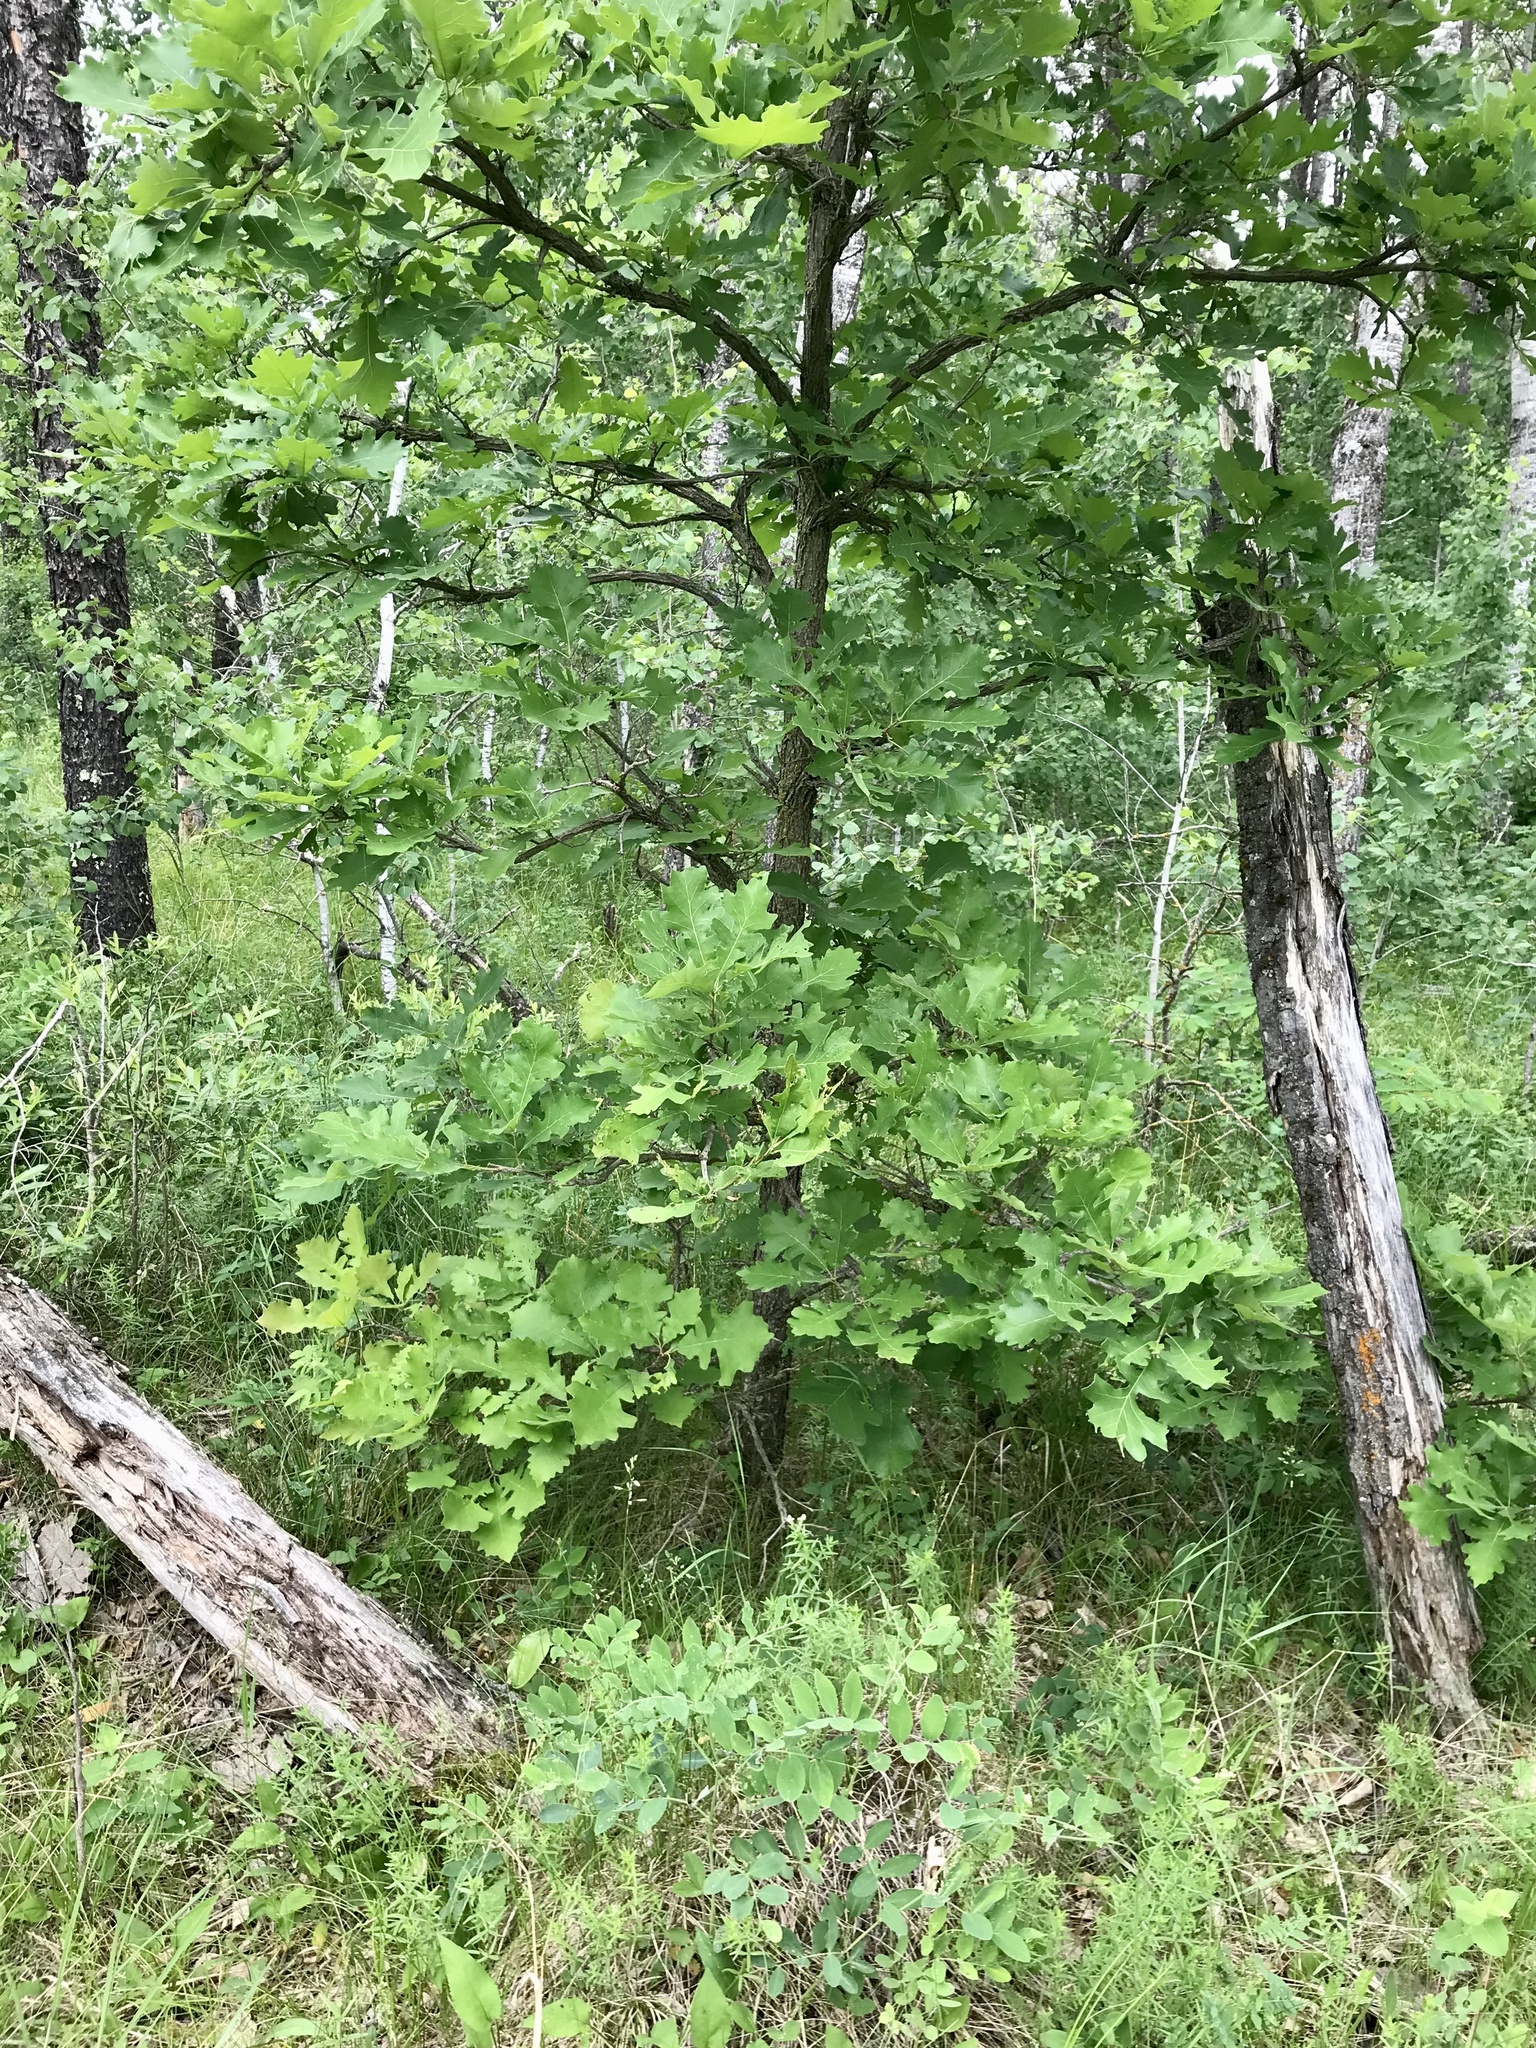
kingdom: Plantae
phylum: Tracheophyta
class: Magnoliopsida
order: Fagales
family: Fagaceae
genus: Quercus
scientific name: Quercus macrocarpa
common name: Bur oak
